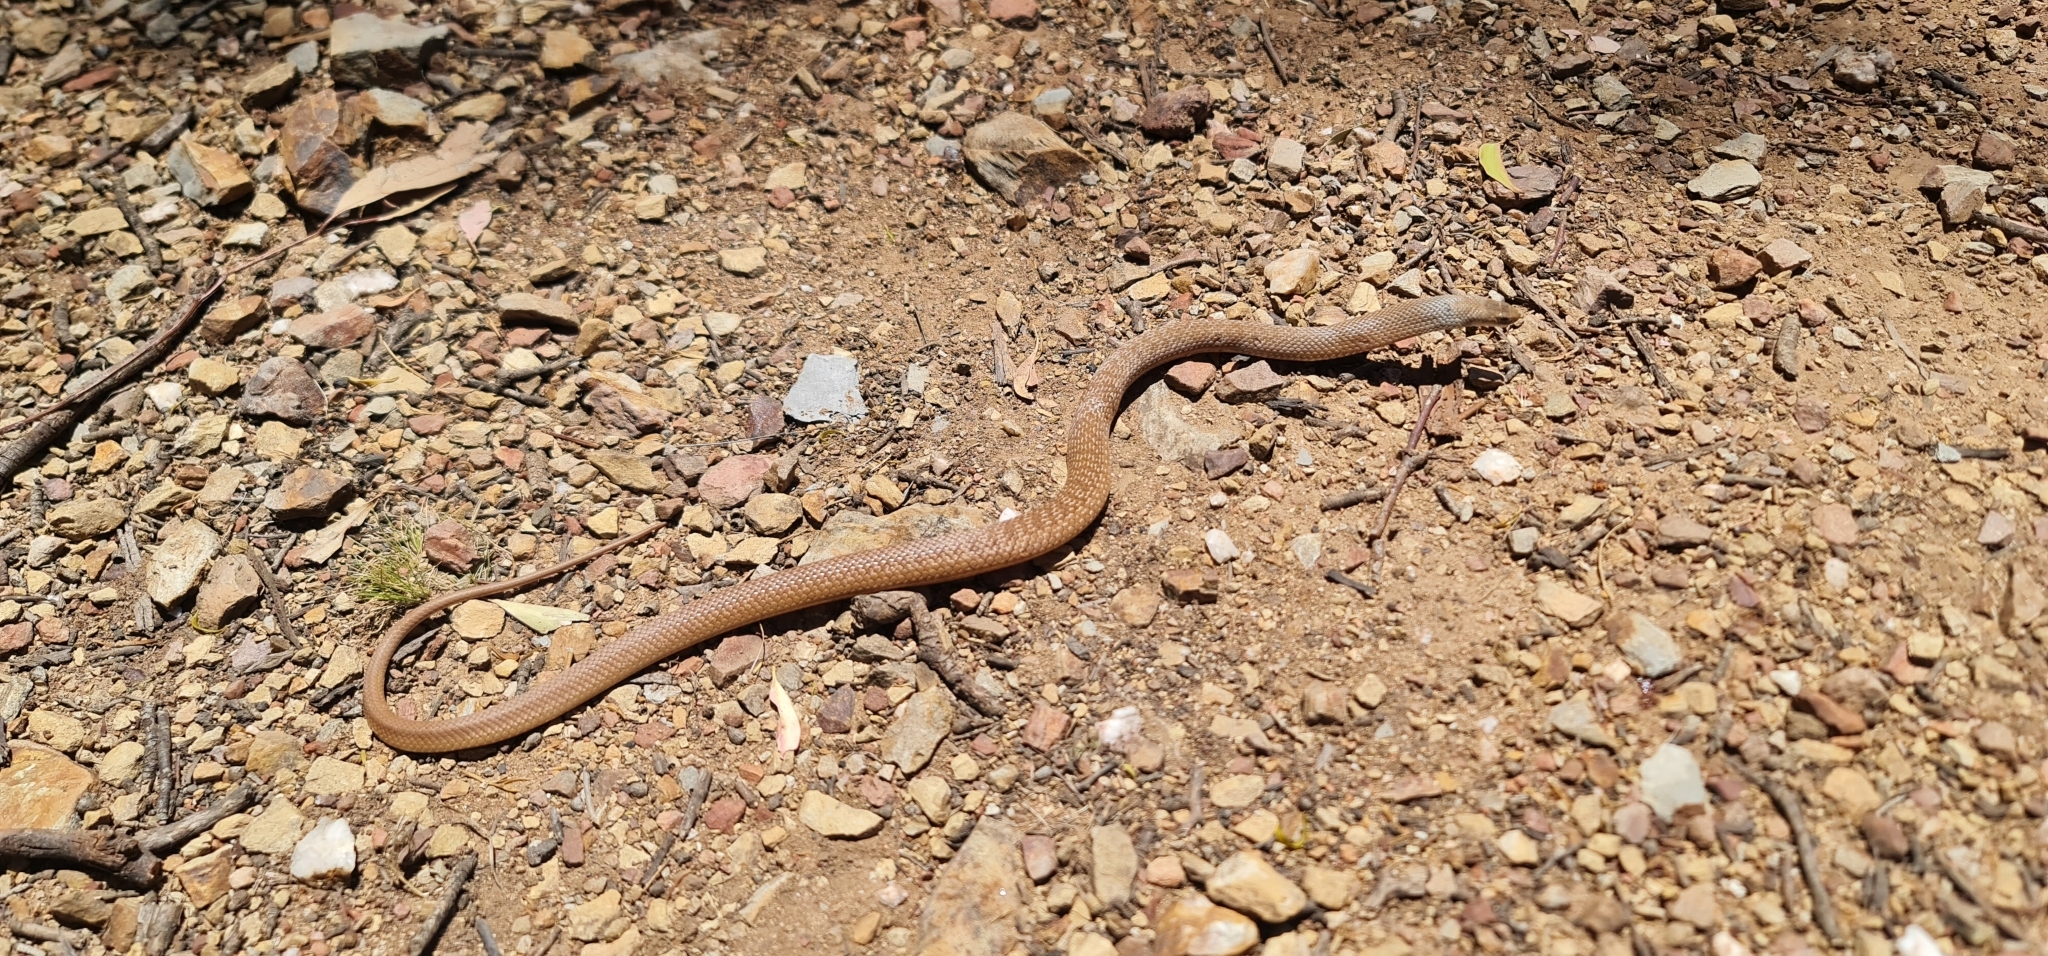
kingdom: Animalia
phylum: Chordata
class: Squamata
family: Elapidae
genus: Pseudonaja
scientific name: Pseudonaja textilis
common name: Eastern brown snake
